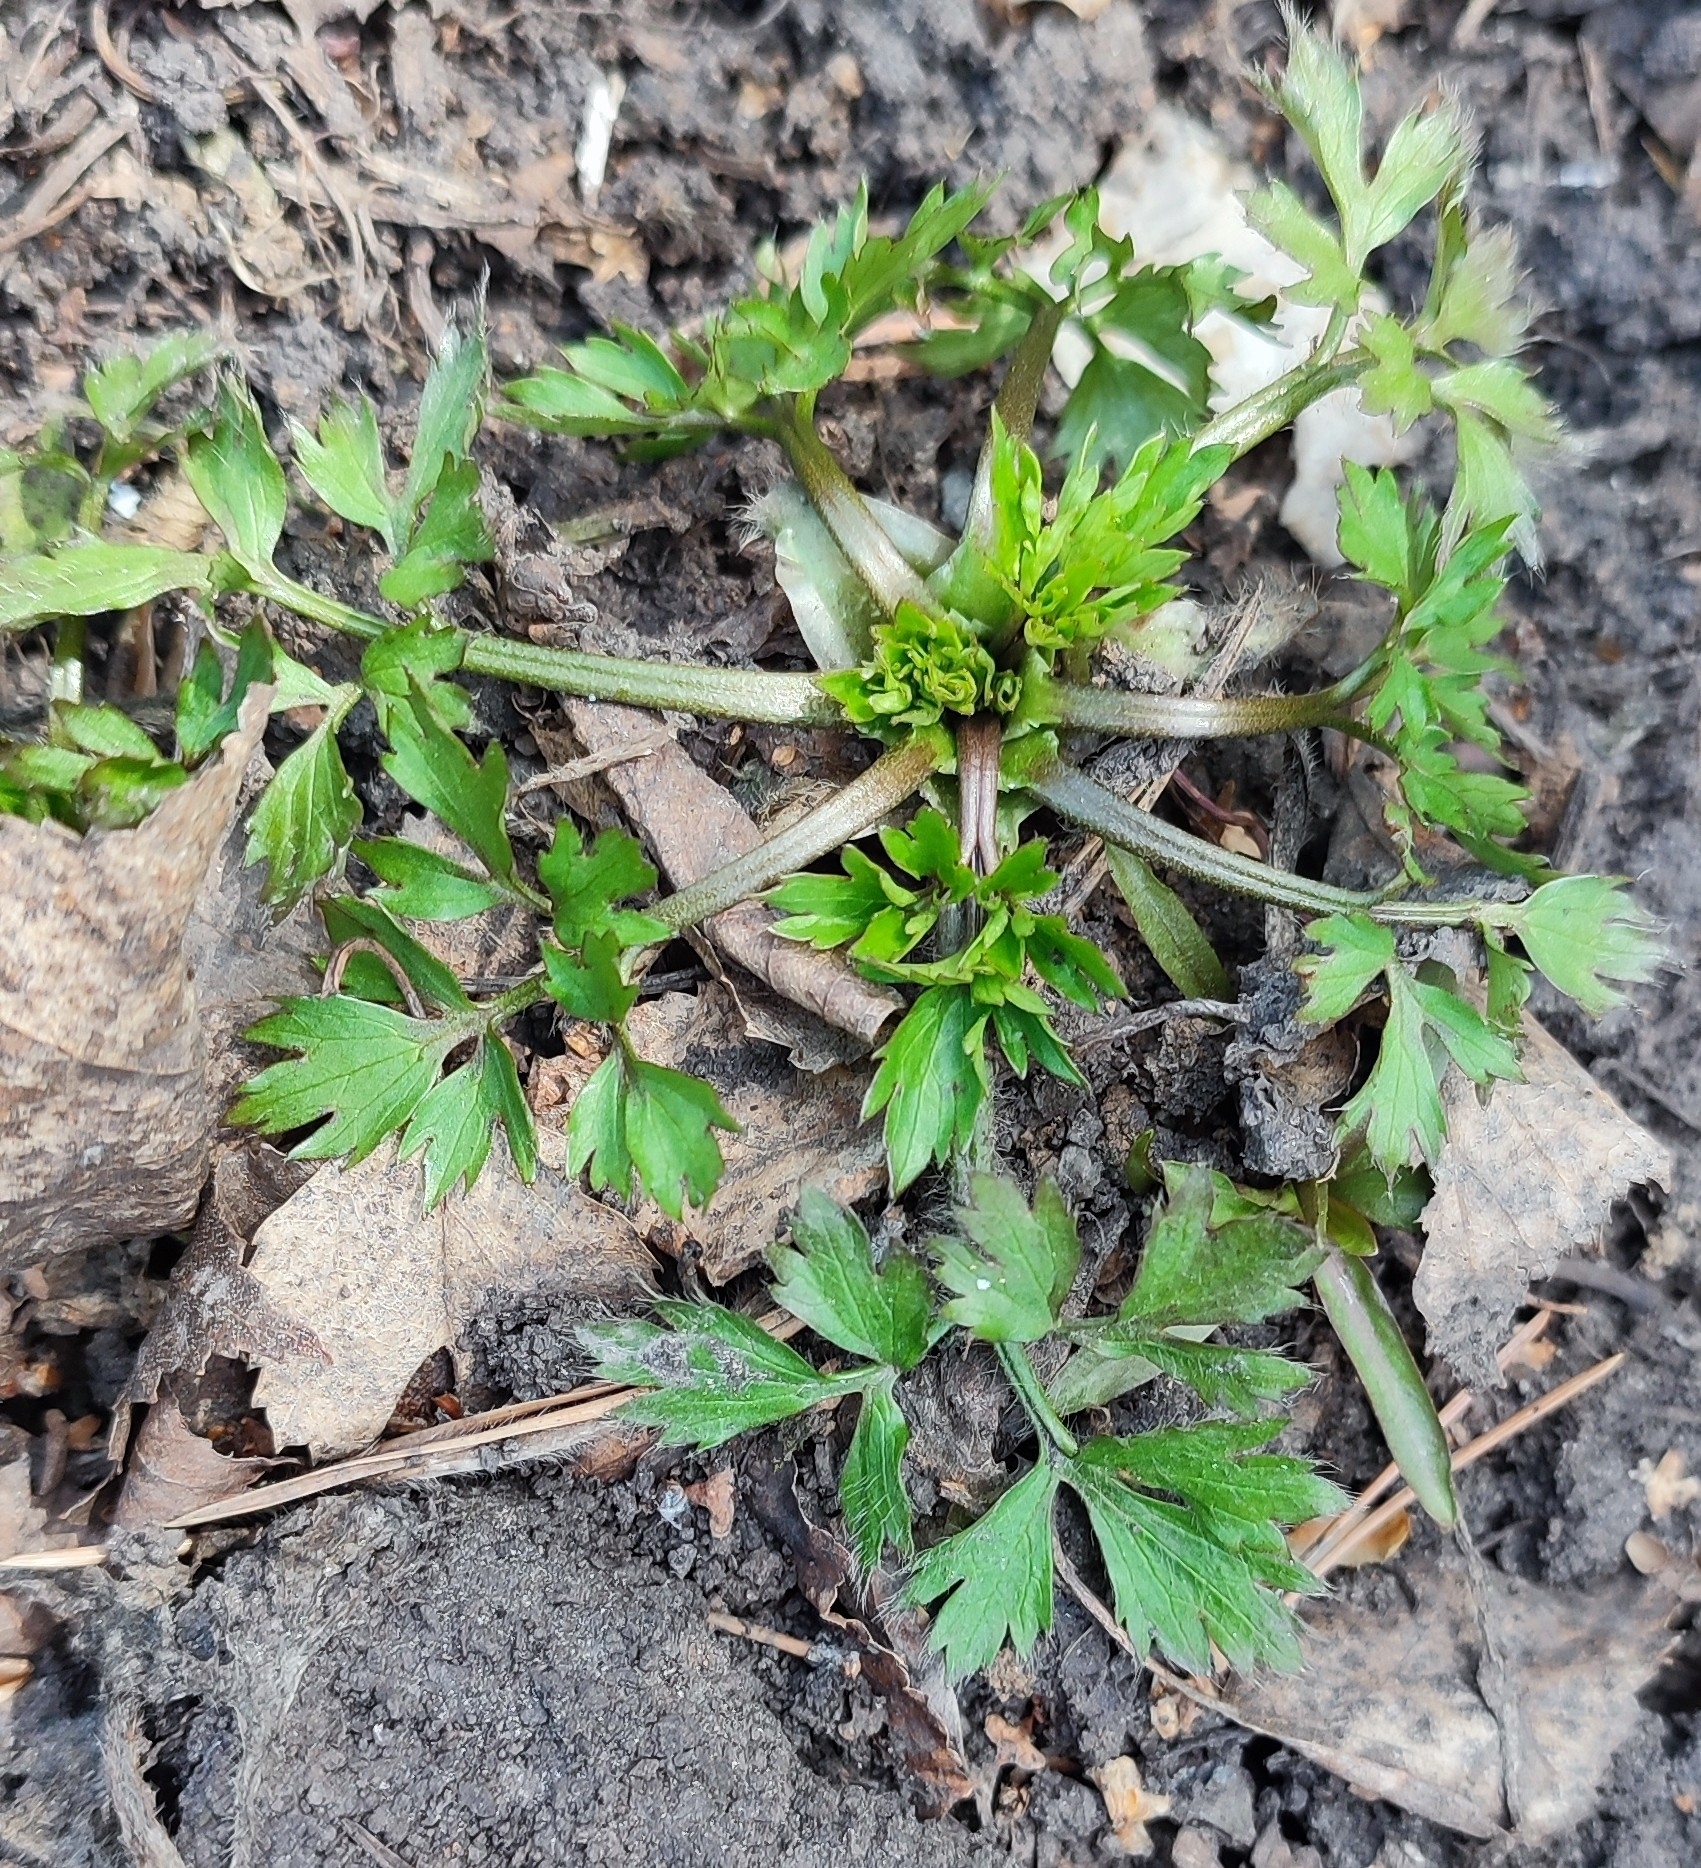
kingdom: Plantae
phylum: Tracheophyta
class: Magnoliopsida
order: Ranunculales
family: Ranunculaceae
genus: Ranunculus
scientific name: Ranunculus repens
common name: Creeping buttercup
